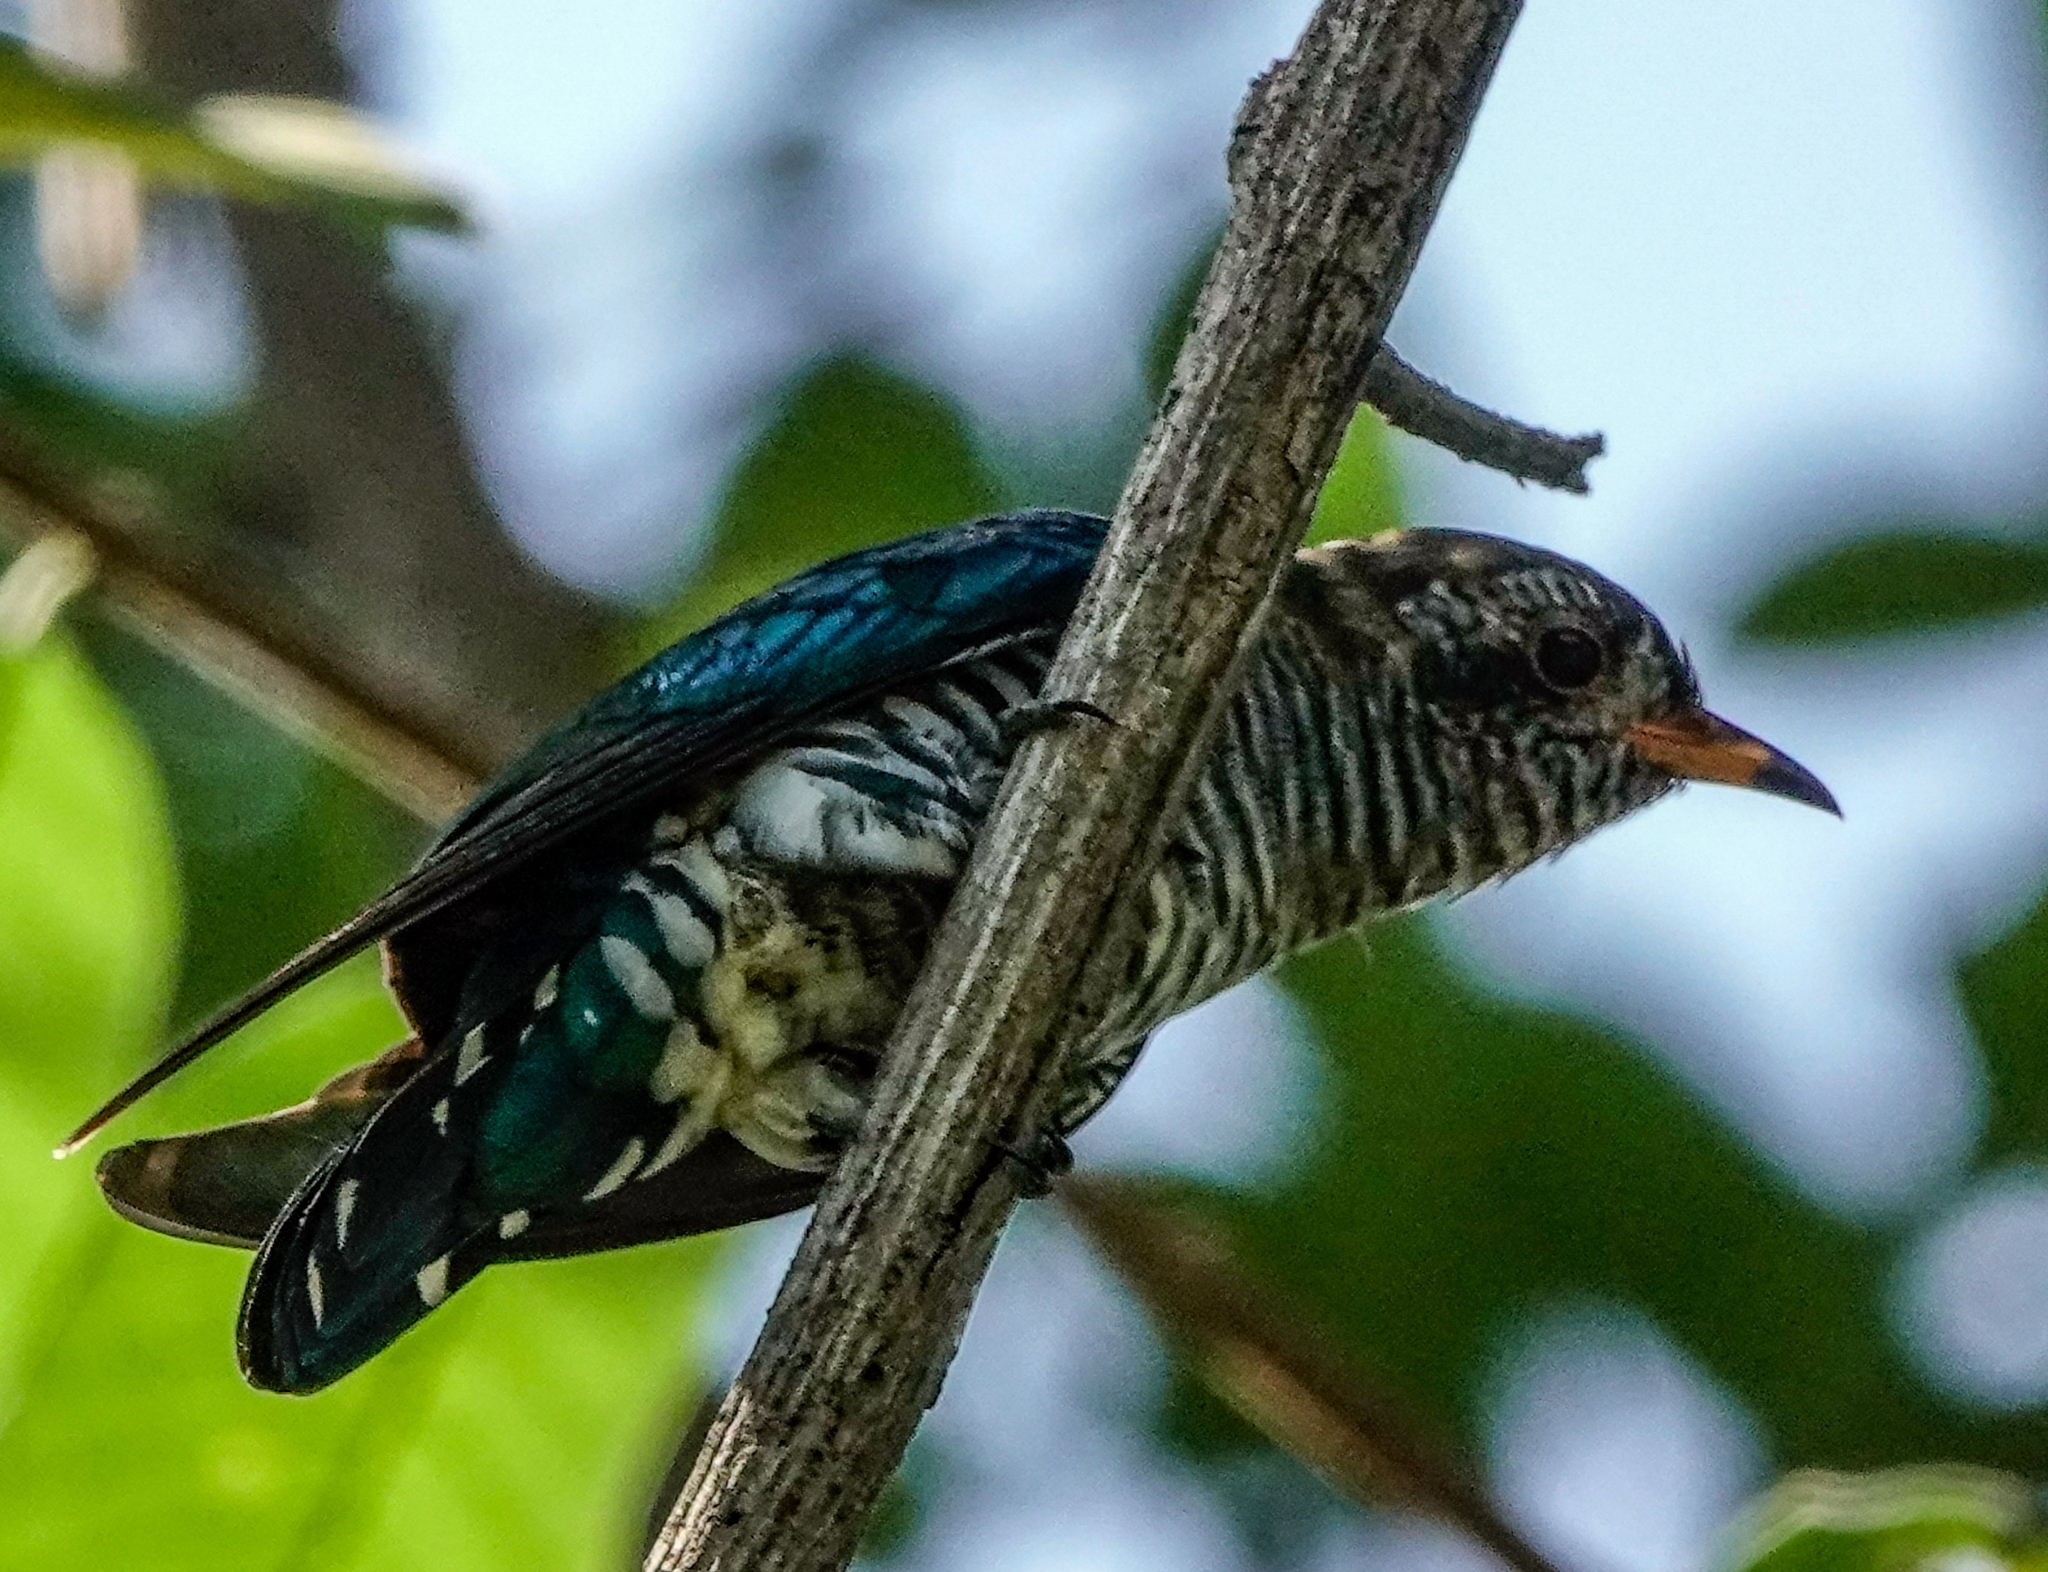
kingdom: Animalia
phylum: Chordata
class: Aves
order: Cuculiformes
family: Cuculidae
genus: Chrysococcyx
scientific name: Chrysococcyx maculatus
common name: Asian emerald cuckoo
